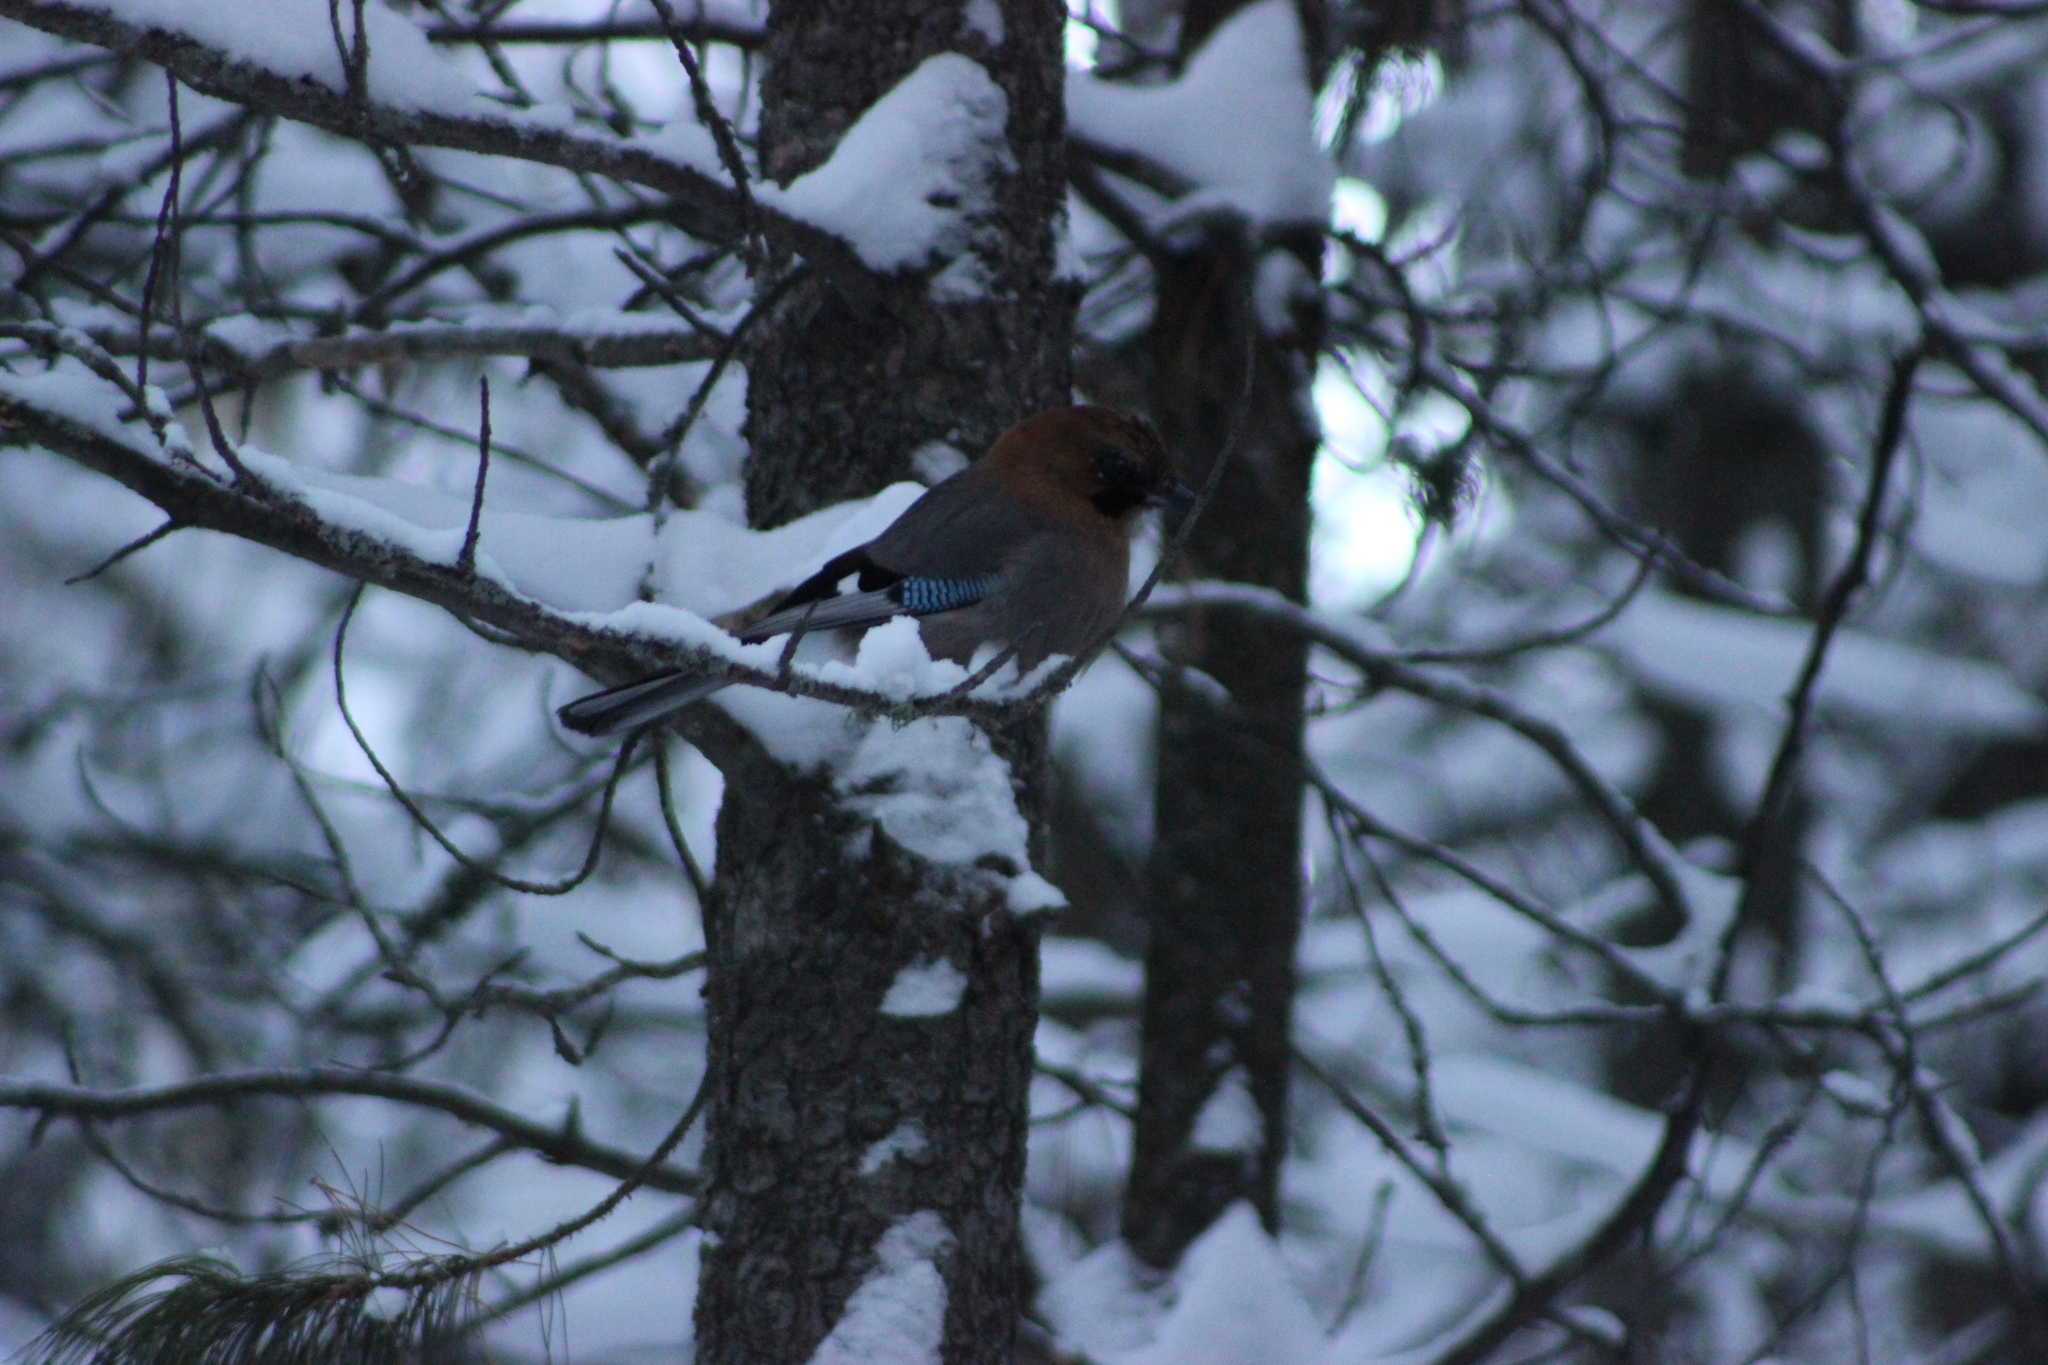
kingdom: Animalia
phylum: Chordata
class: Aves
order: Passeriformes
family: Corvidae
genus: Garrulus
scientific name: Garrulus glandarius
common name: Eurasian jay
